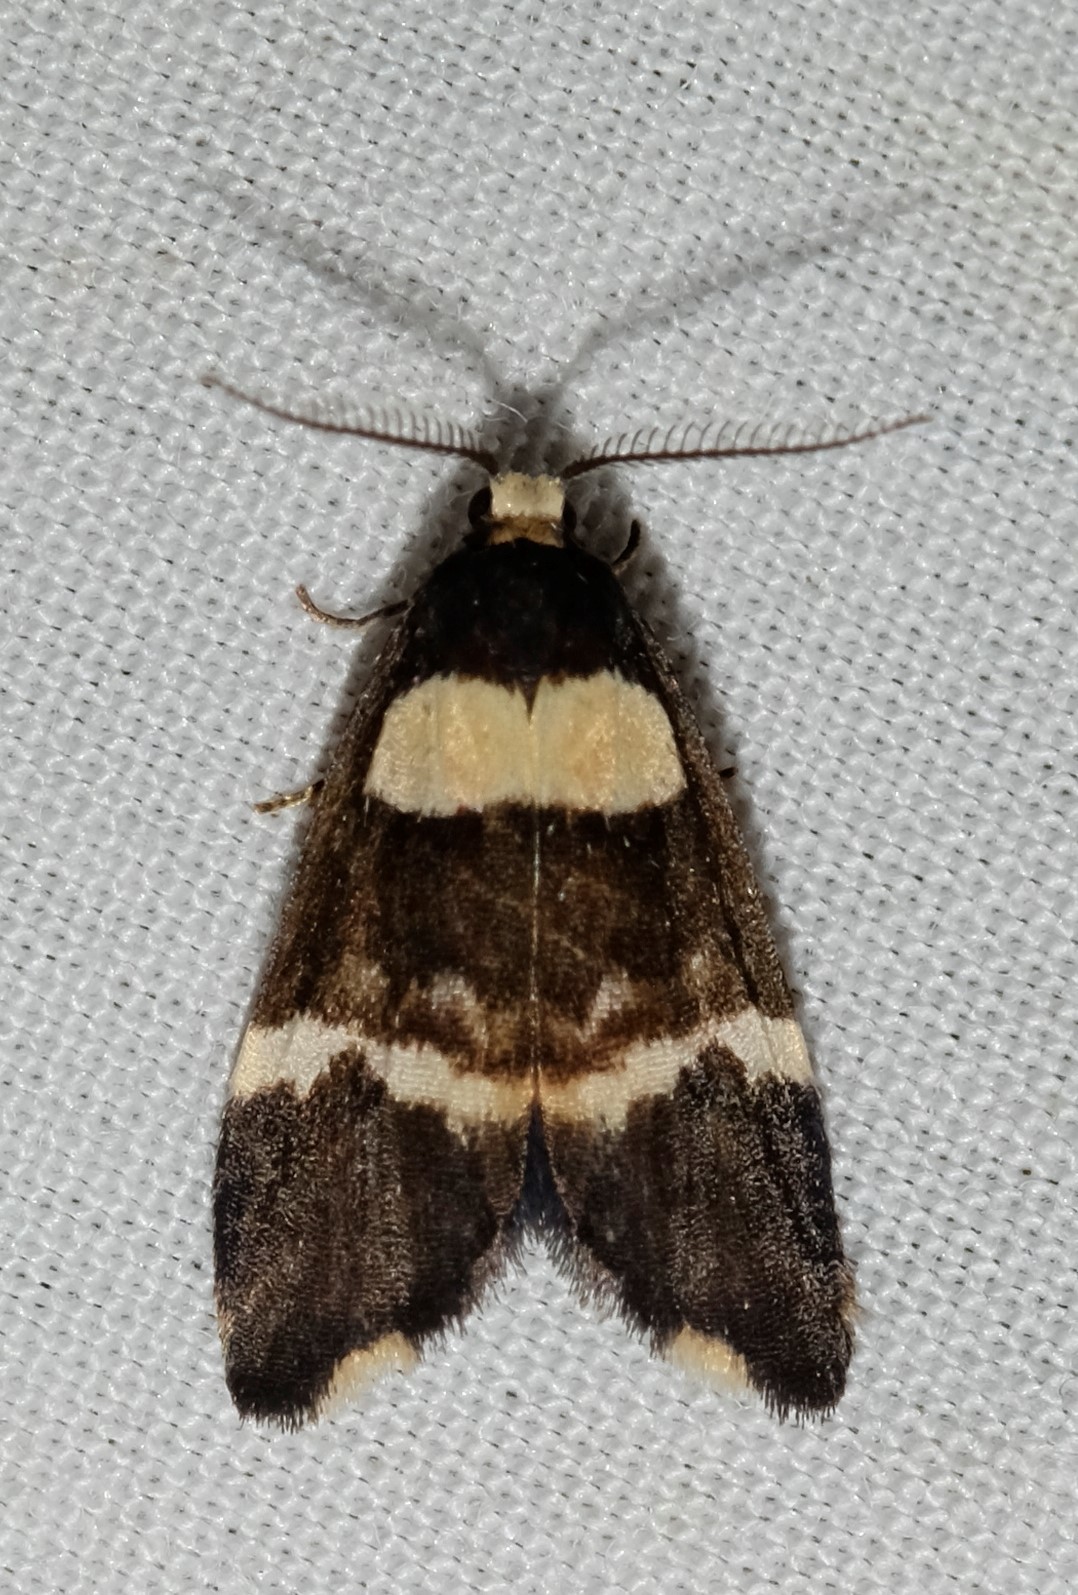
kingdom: Animalia
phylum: Arthropoda
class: Insecta
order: Lepidoptera
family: Erebidae
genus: Thallarcha
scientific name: Thallarcha phalarota
